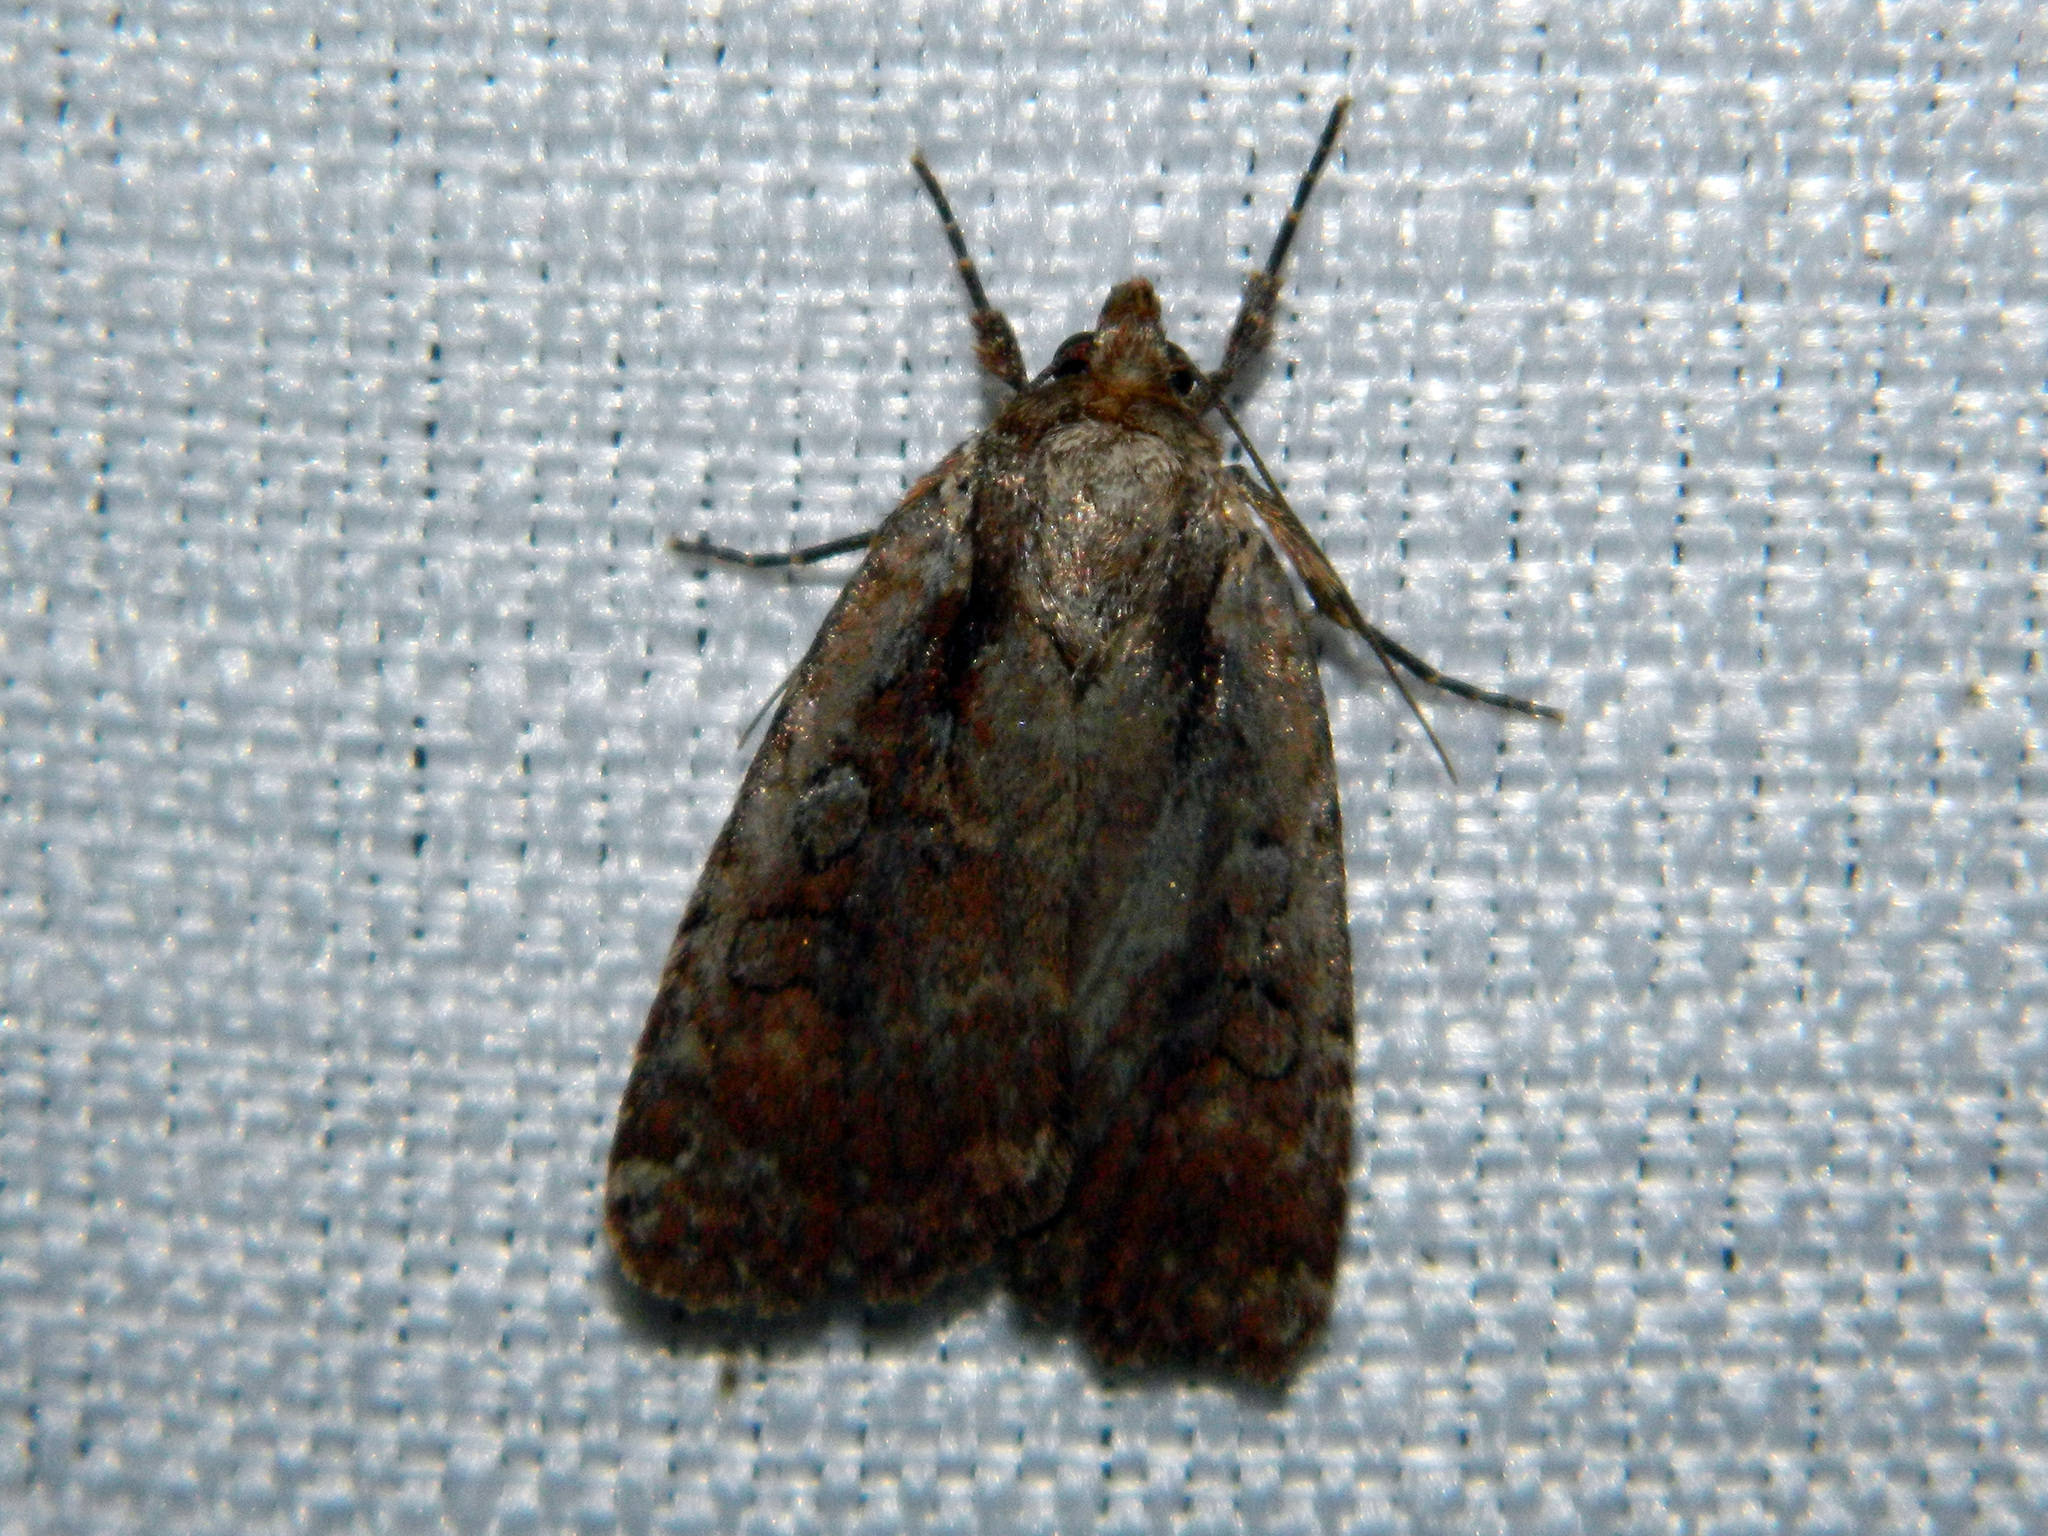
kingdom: Animalia
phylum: Arthropoda
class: Insecta
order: Lepidoptera
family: Noctuidae
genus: Eueretagrotis
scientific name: Eueretagrotis attentus
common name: Attentive dart
